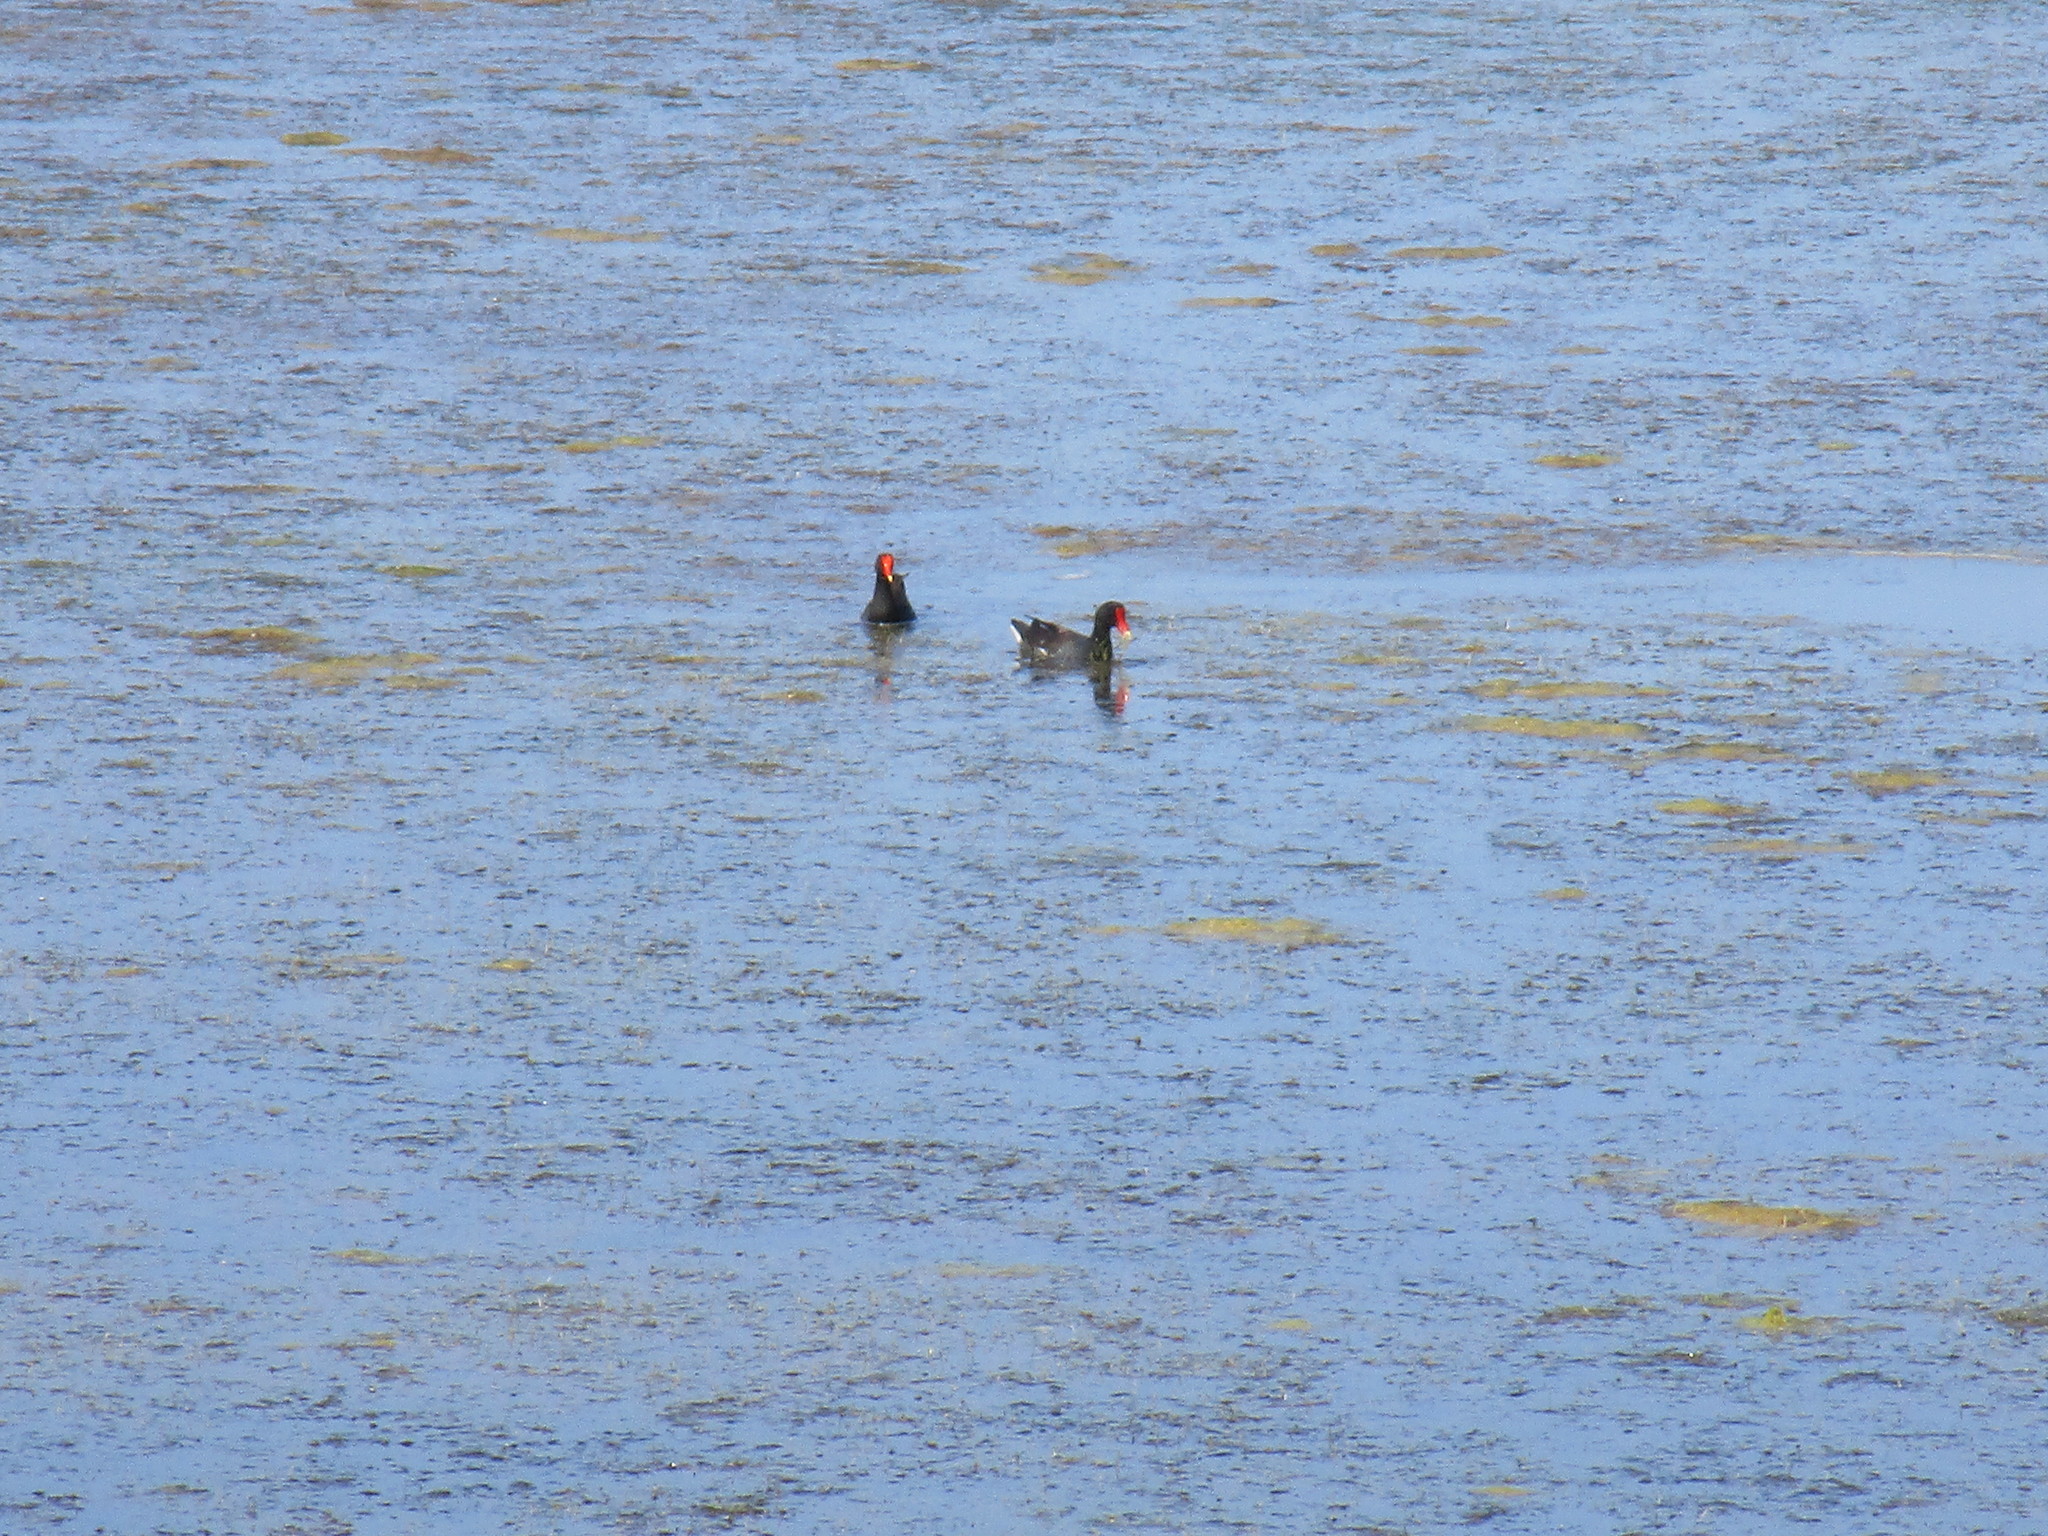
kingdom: Animalia
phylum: Chordata
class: Aves
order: Gruiformes
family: Rallidae
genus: Gallinula
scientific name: Gallinula chloropus
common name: Common moorhen
